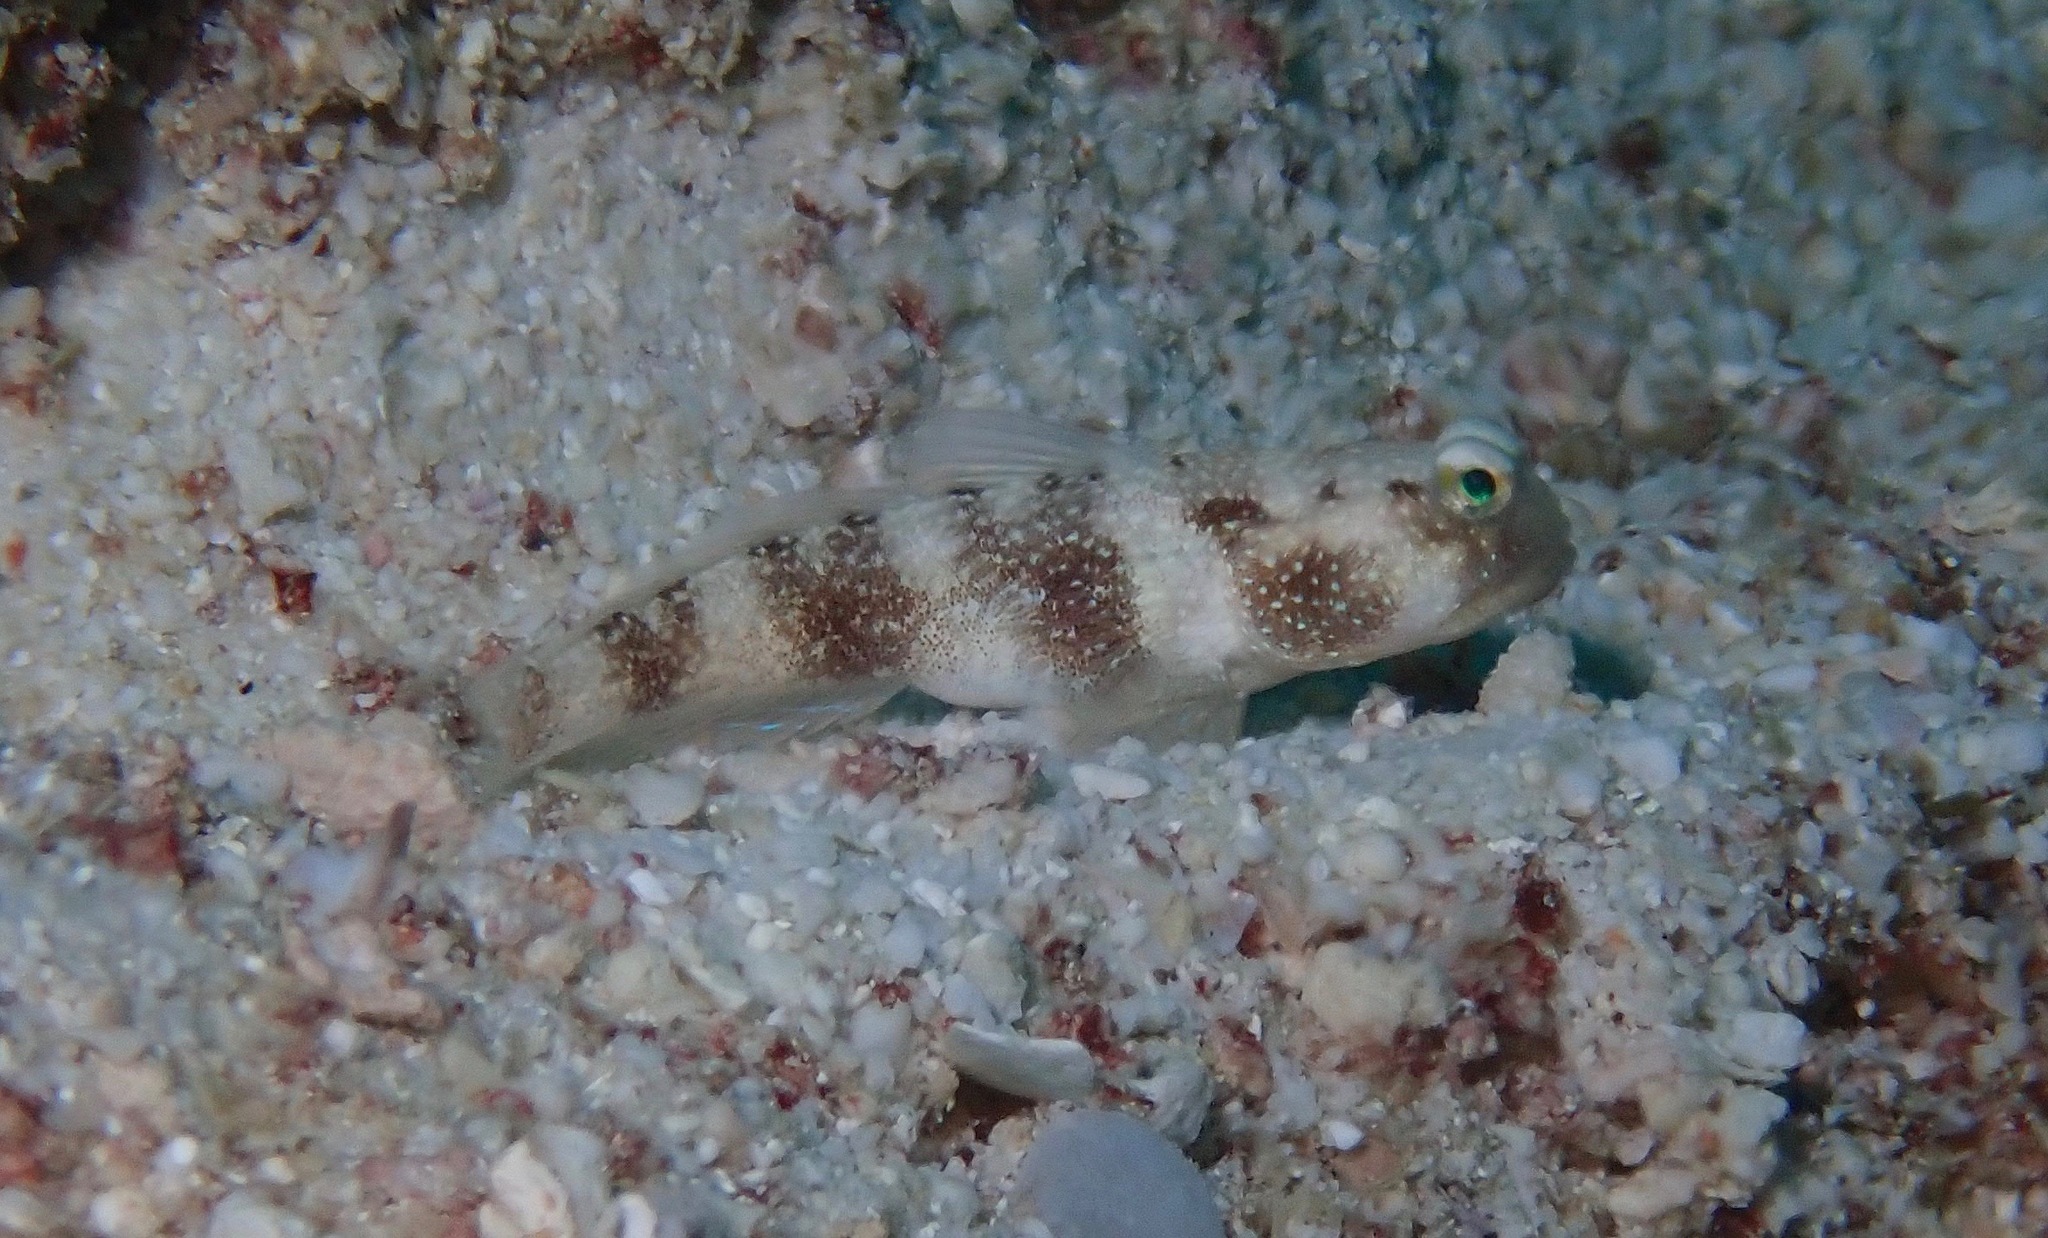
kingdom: Animalia
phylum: Chordata
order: Perciformes
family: Gobiidae
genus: Cryptocentrus
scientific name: Cryptocentrus fasciatus
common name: Barred prawn-goby
